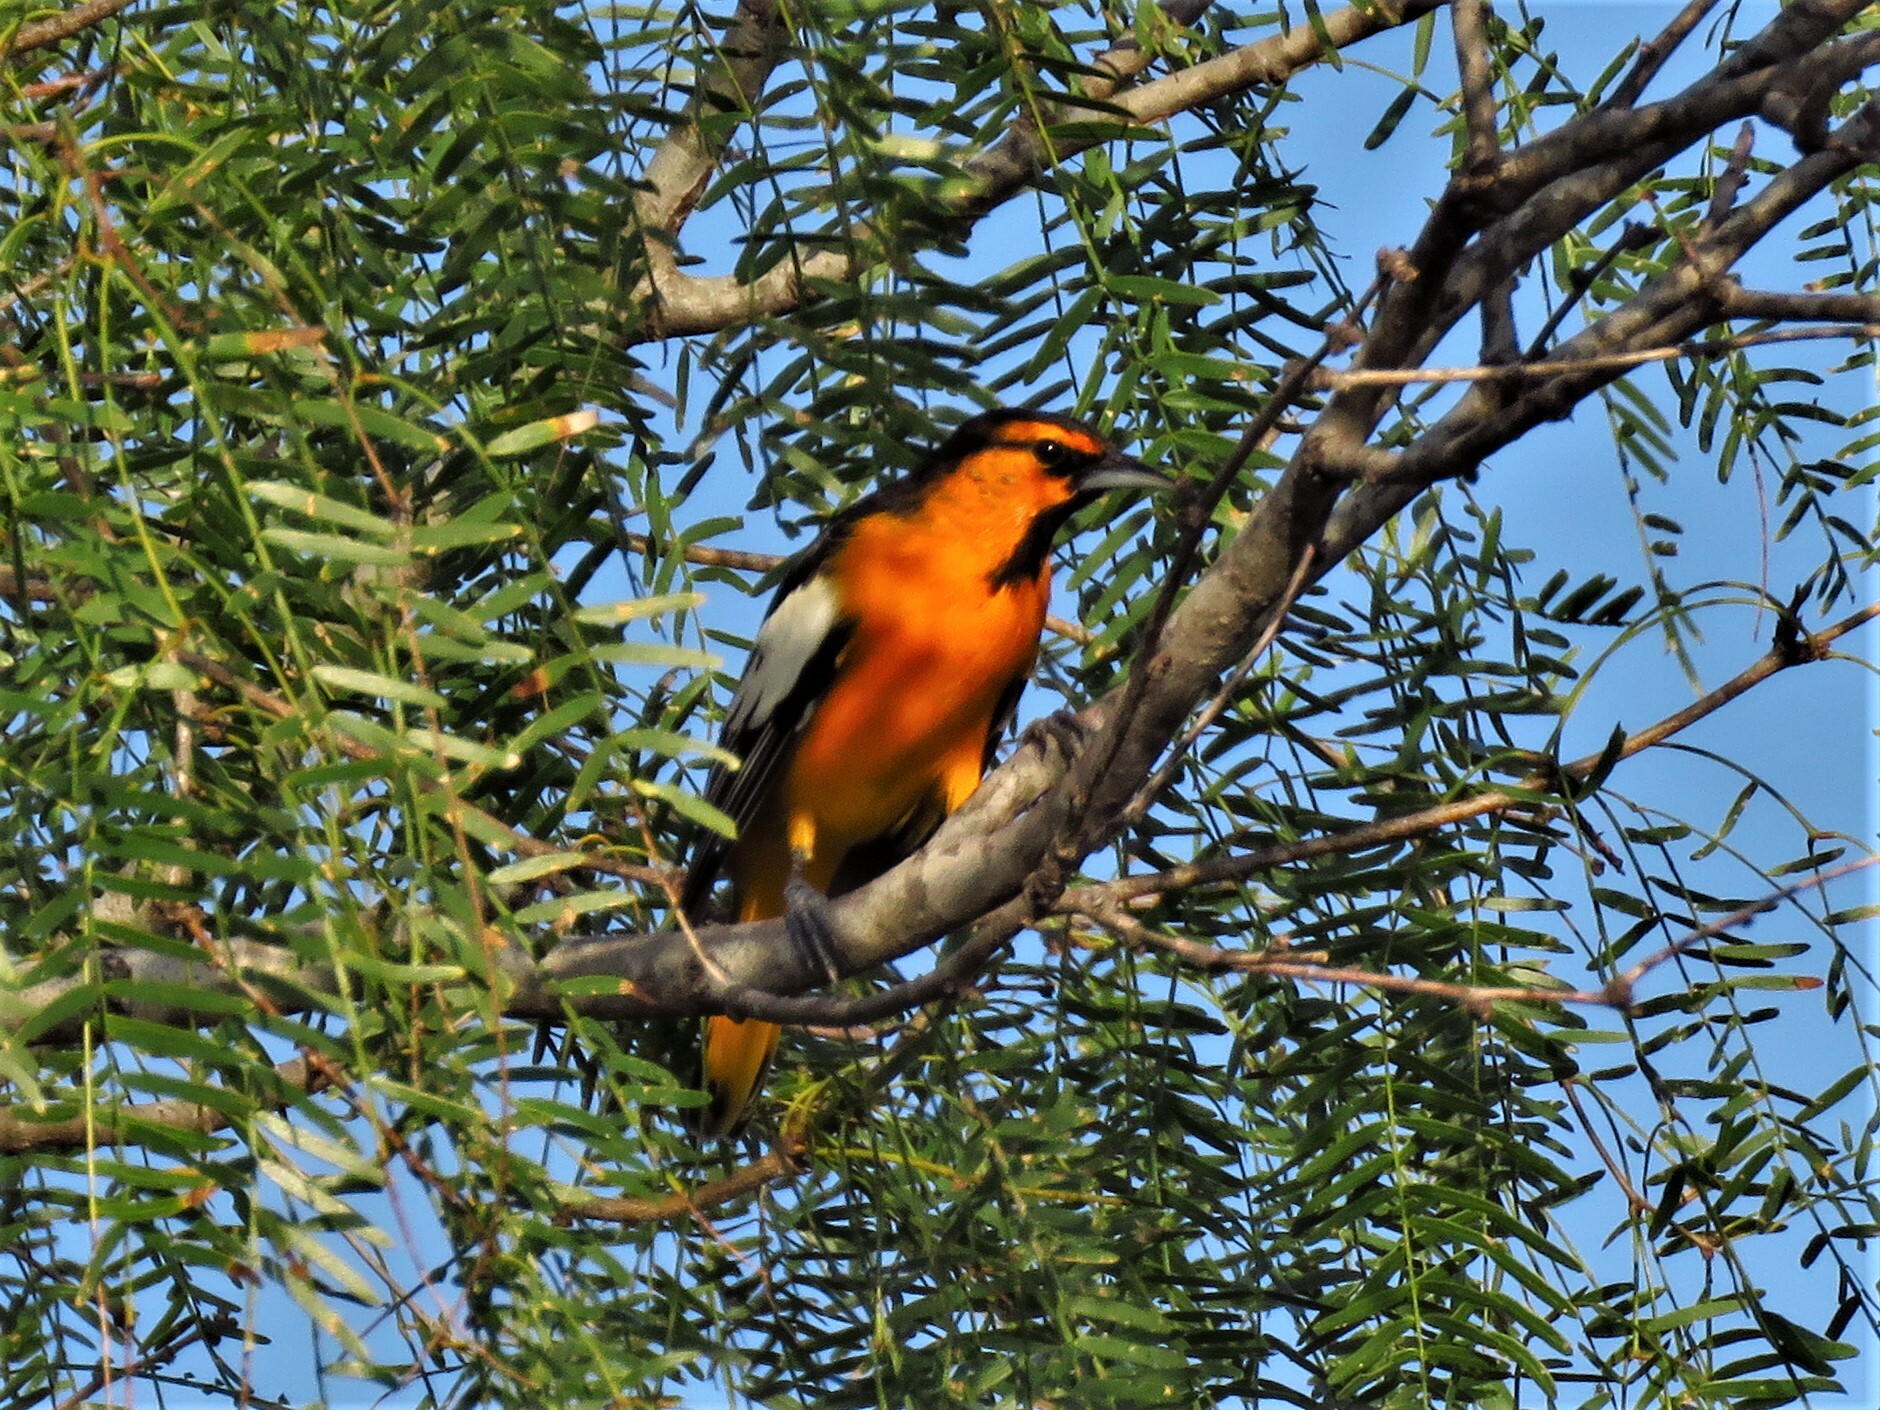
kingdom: Animalia
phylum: Chordata
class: Aves
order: Passeriformes
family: Icteridae
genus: Icterus
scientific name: Icterus bullockii
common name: Bullock's oriole
